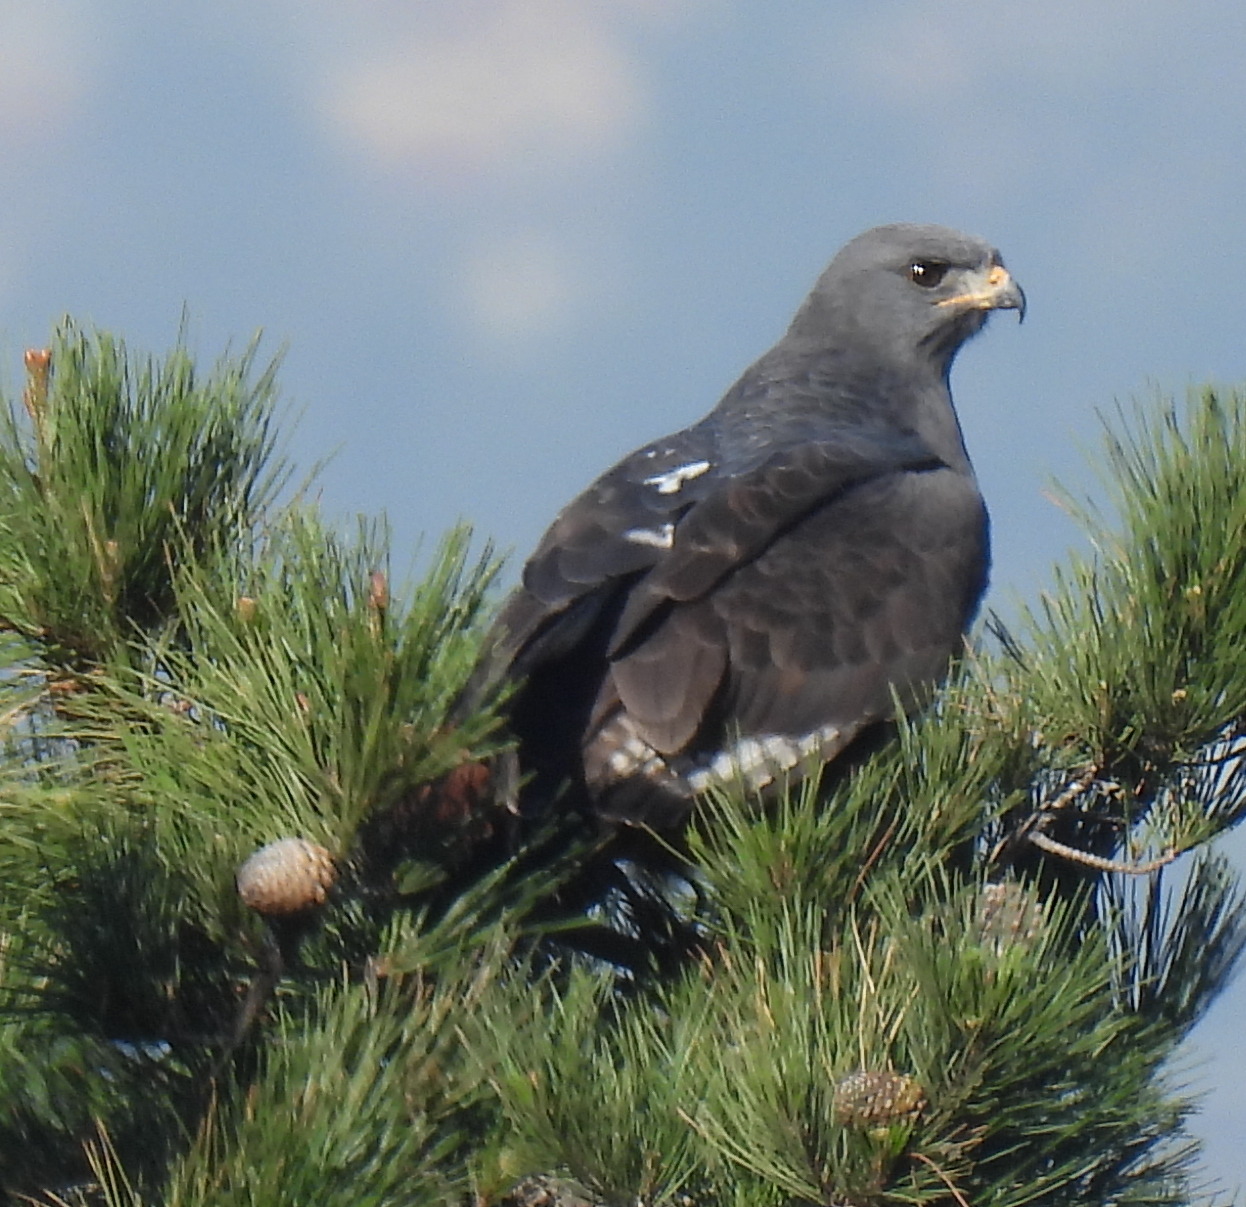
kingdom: Animalia
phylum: Chordata
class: Aves
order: Accipitriformes
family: Accipitridae
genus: Buteo
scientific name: Buteo rufofuscus
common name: Jackal buzzard
